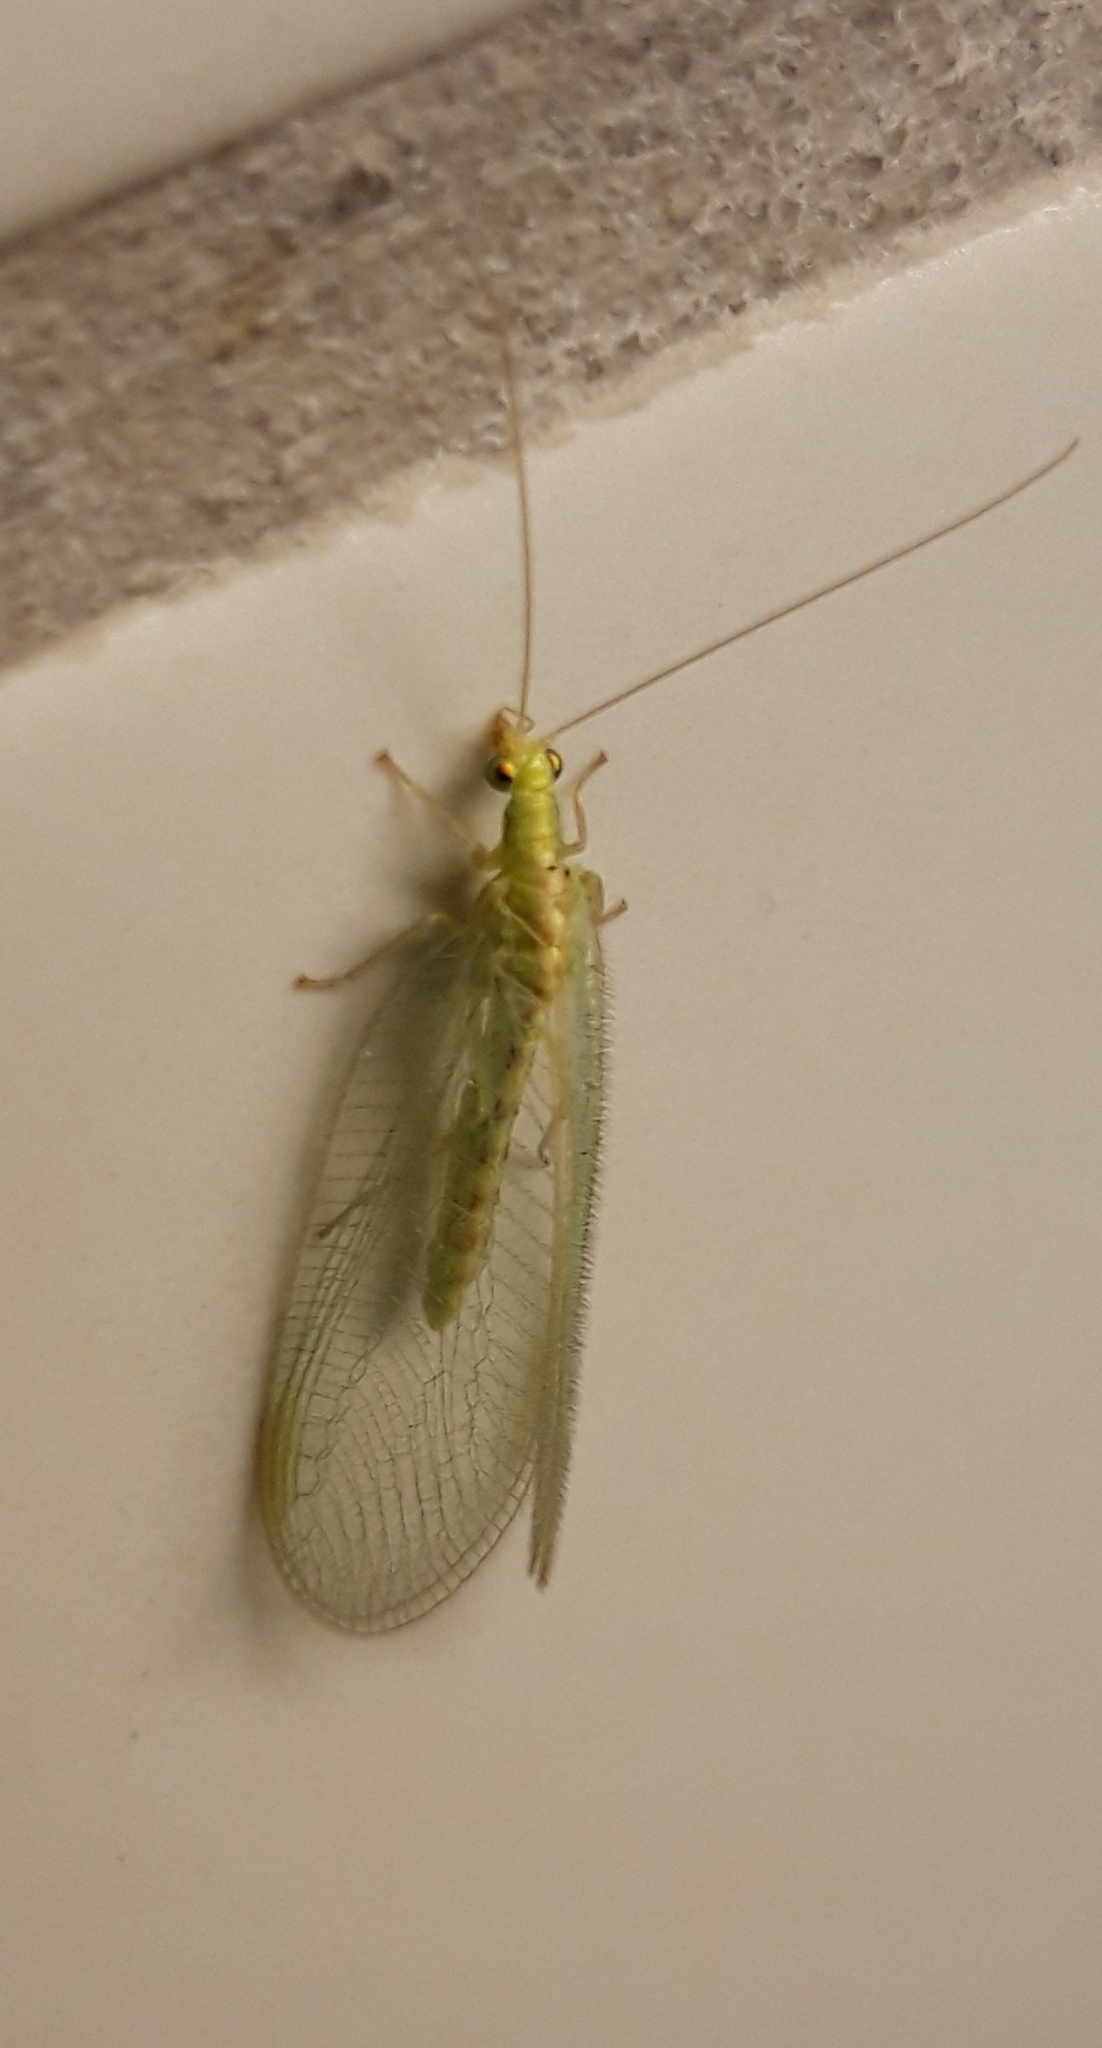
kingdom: Animalia
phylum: Arthropoda
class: Insecta
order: Neuroptera
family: Chrysopidae
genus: Chrysoperla
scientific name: Chrysoperla
